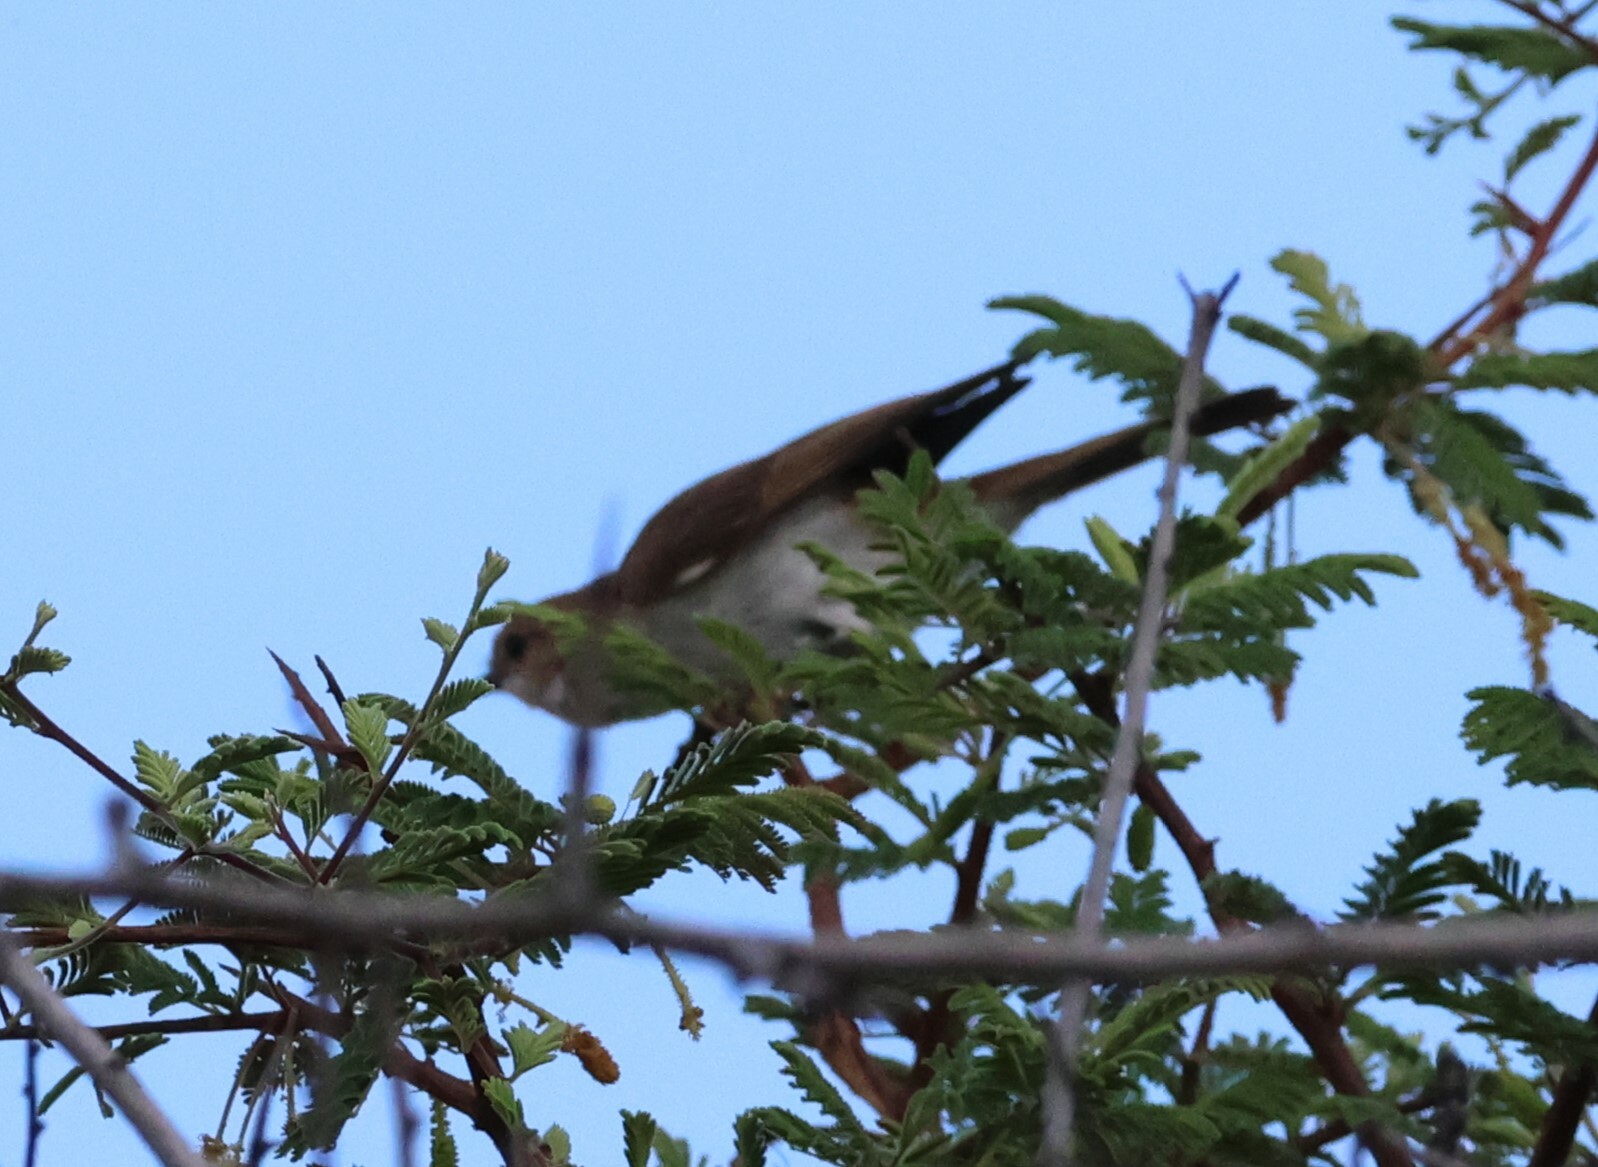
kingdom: Animalia
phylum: Chordata
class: Aves
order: Passeriformes
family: Muscicapidae
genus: Bradornis
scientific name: Bradornis mariquensis
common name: Marico flycatcher
